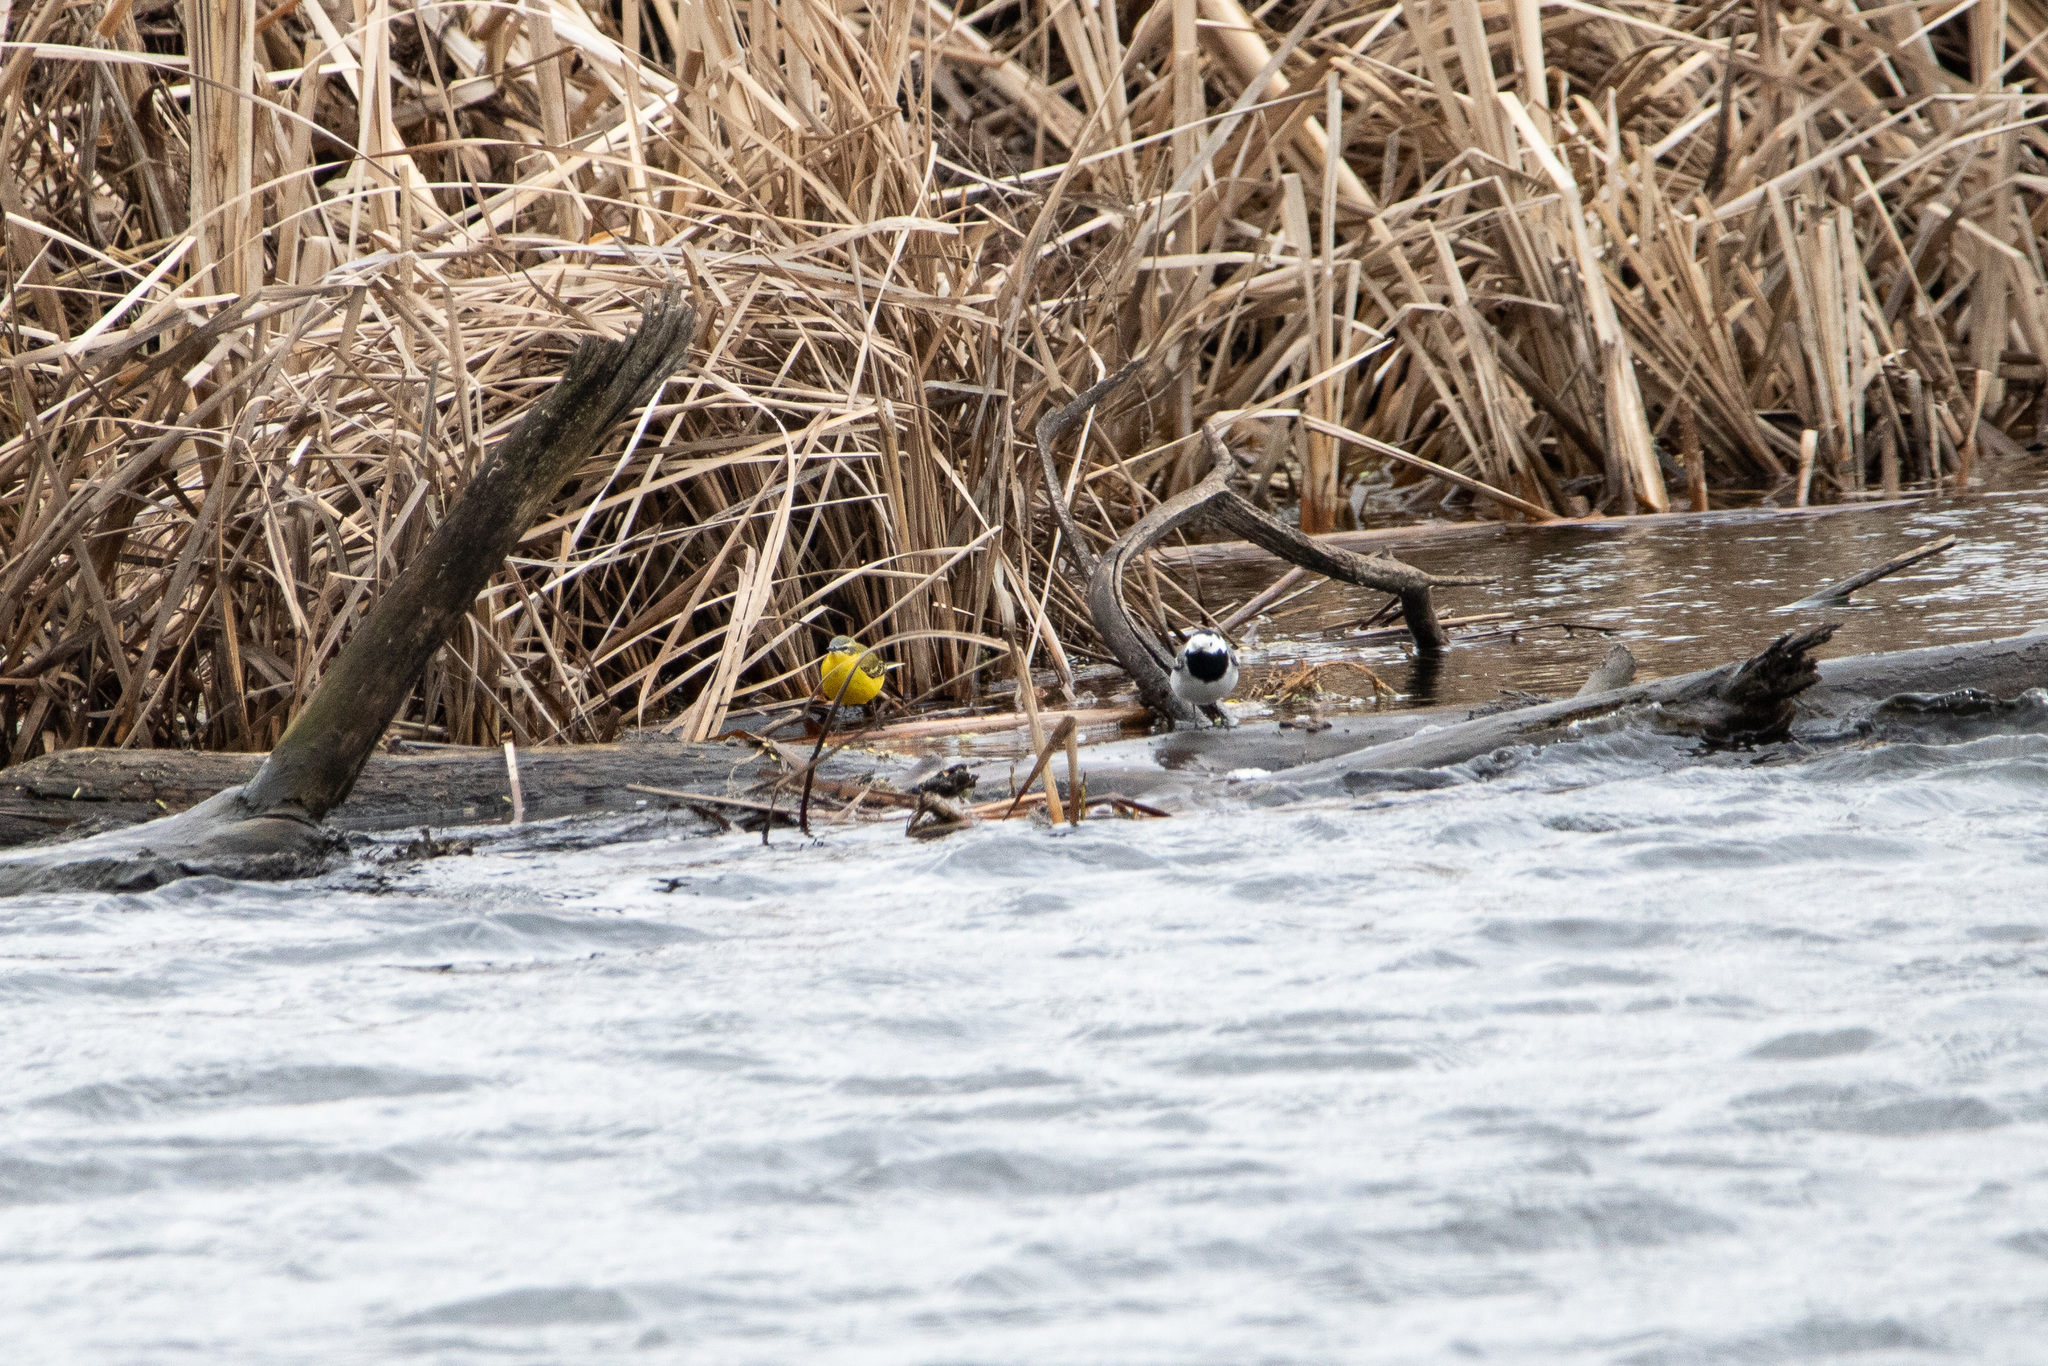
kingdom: Animalia
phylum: Chordata
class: Aves
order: Passeriformes
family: Motacillidae
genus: Motacilla
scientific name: Motacilla flava
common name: Western yellow wagtail
